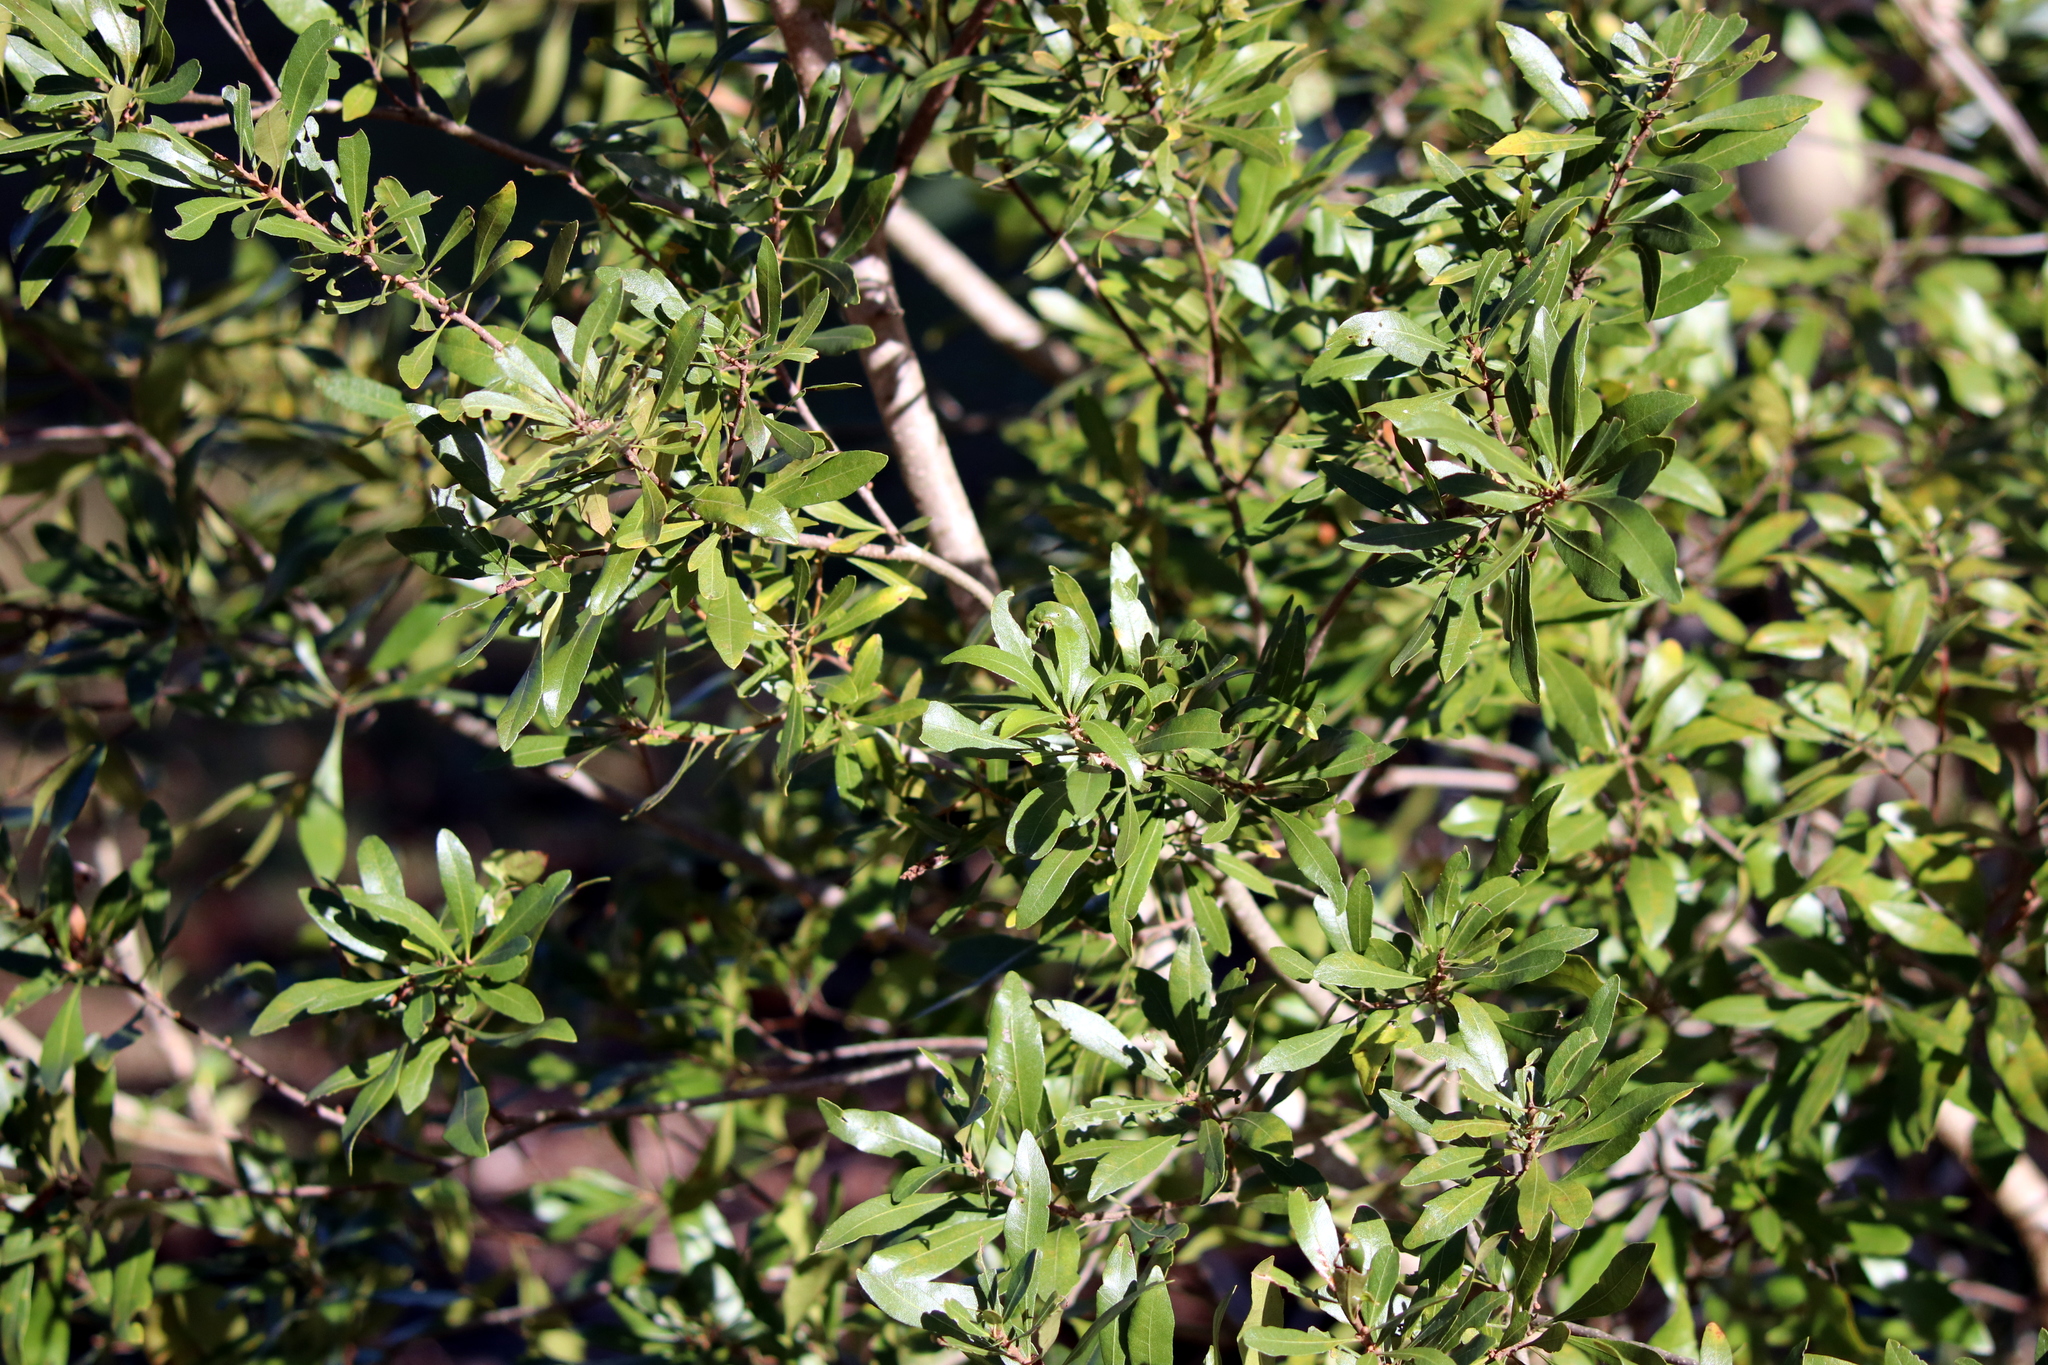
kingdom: Plantae
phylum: Tracheophyta
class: Magnoliopsida
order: Fagales
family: Myricaceae
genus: Morella
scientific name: Morella cerifera
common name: Wax myrtle
